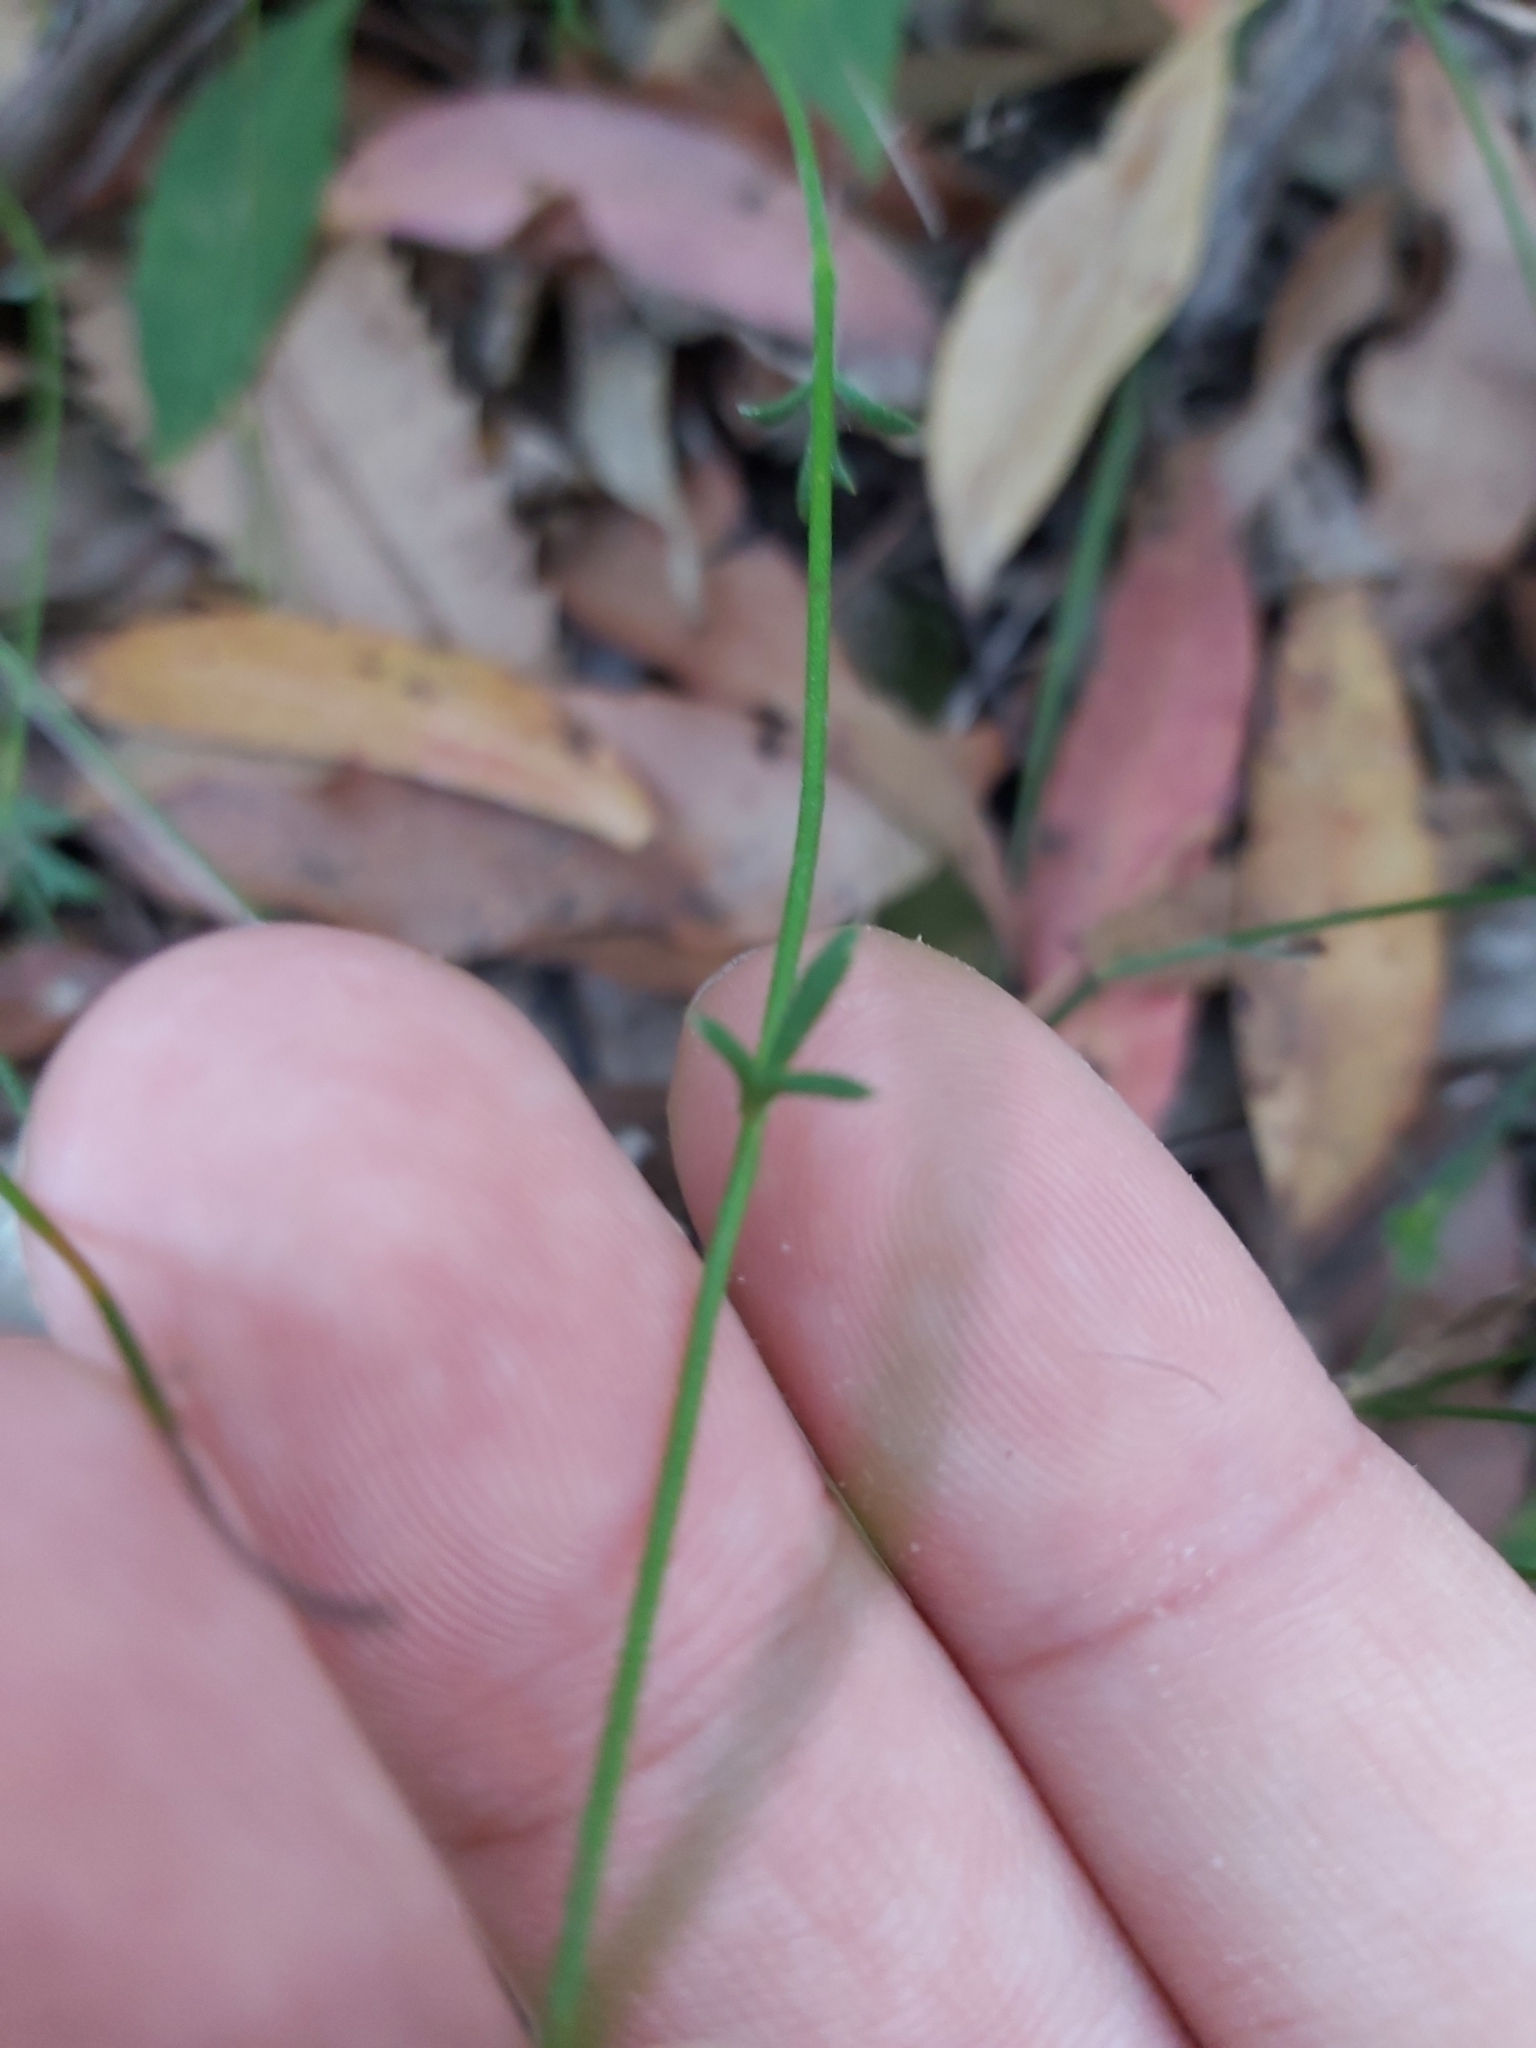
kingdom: Plantae
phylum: Tracheophyta
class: Magnoliopsida
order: Apiales
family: Apiaceae
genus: Actinotus
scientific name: Actinotus minor
